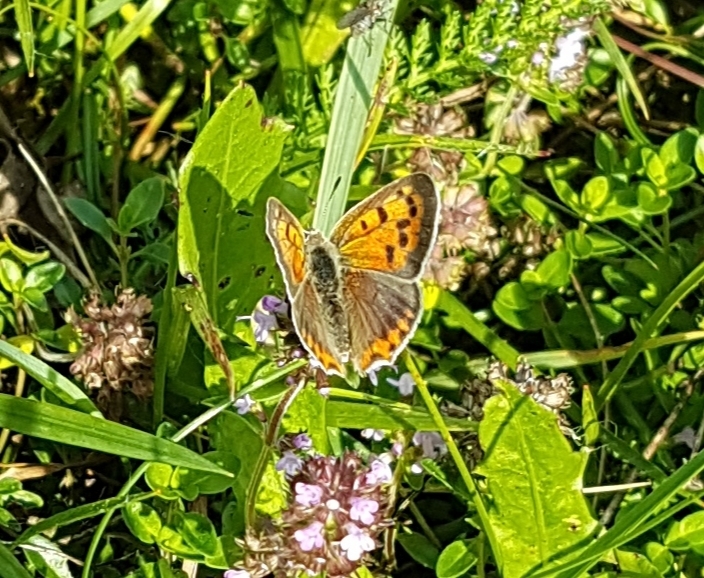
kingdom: Animalia
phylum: Arthropoda
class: Insecta
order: Lepidoptera
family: Lycaenidae
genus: Lycaena
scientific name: Lycaena phlaeas
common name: Small copper
